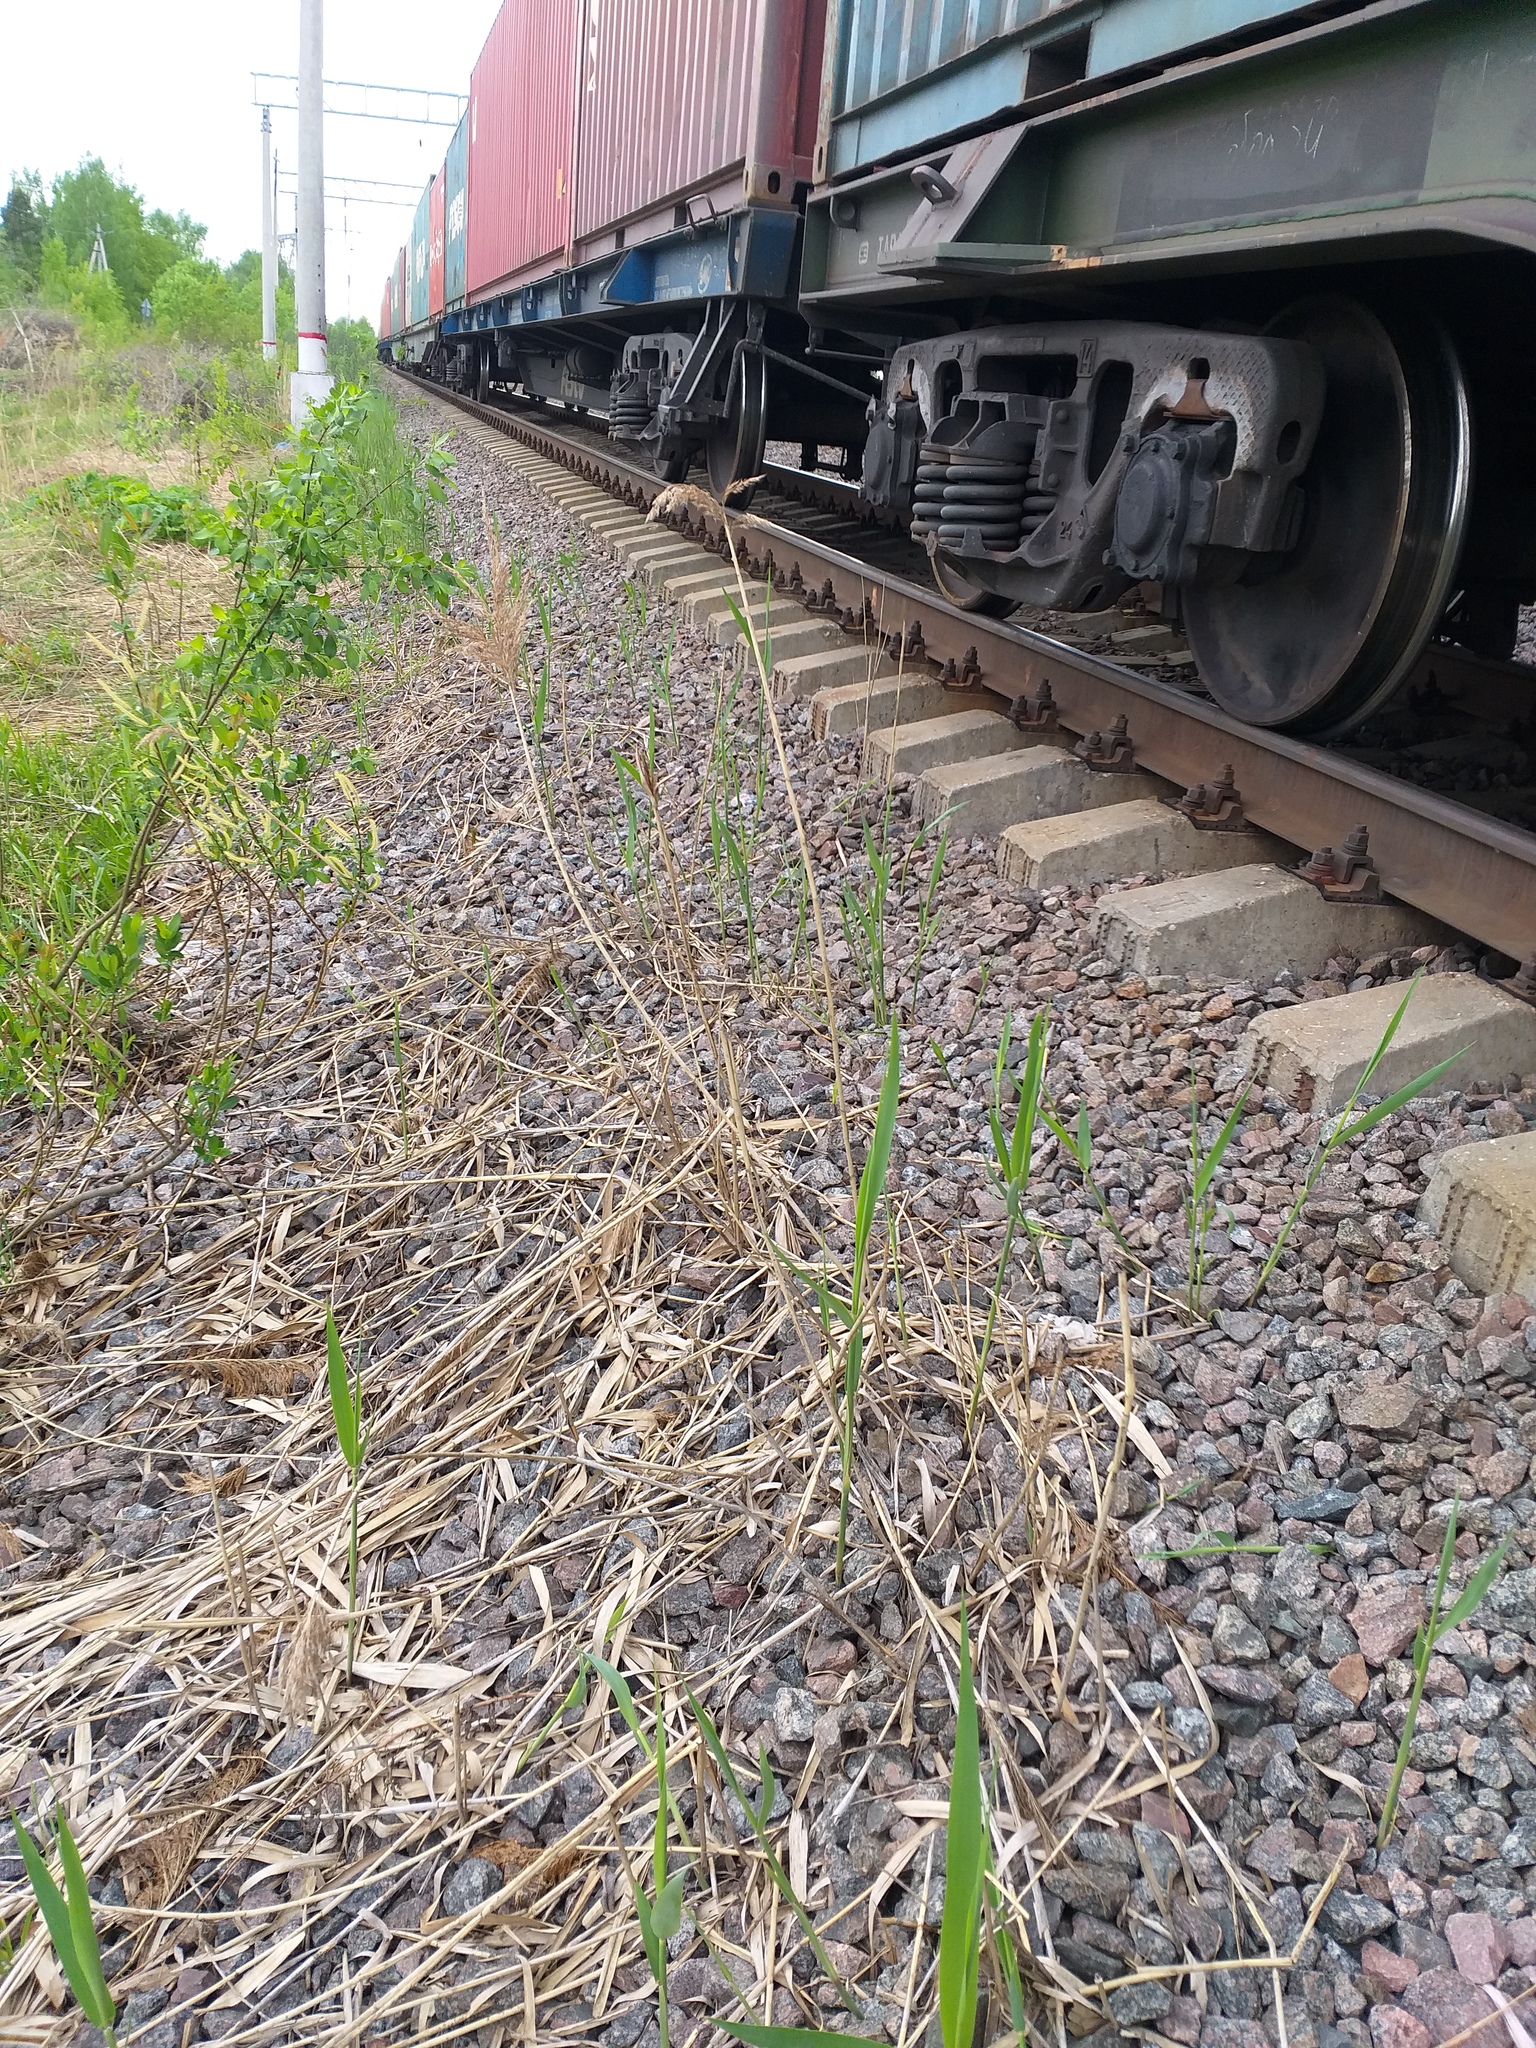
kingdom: Plantae
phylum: Tracheophyta
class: Liliopsida
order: Poales
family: Poaceae
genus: Phragmites
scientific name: Phragmites australis
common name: Common reed
